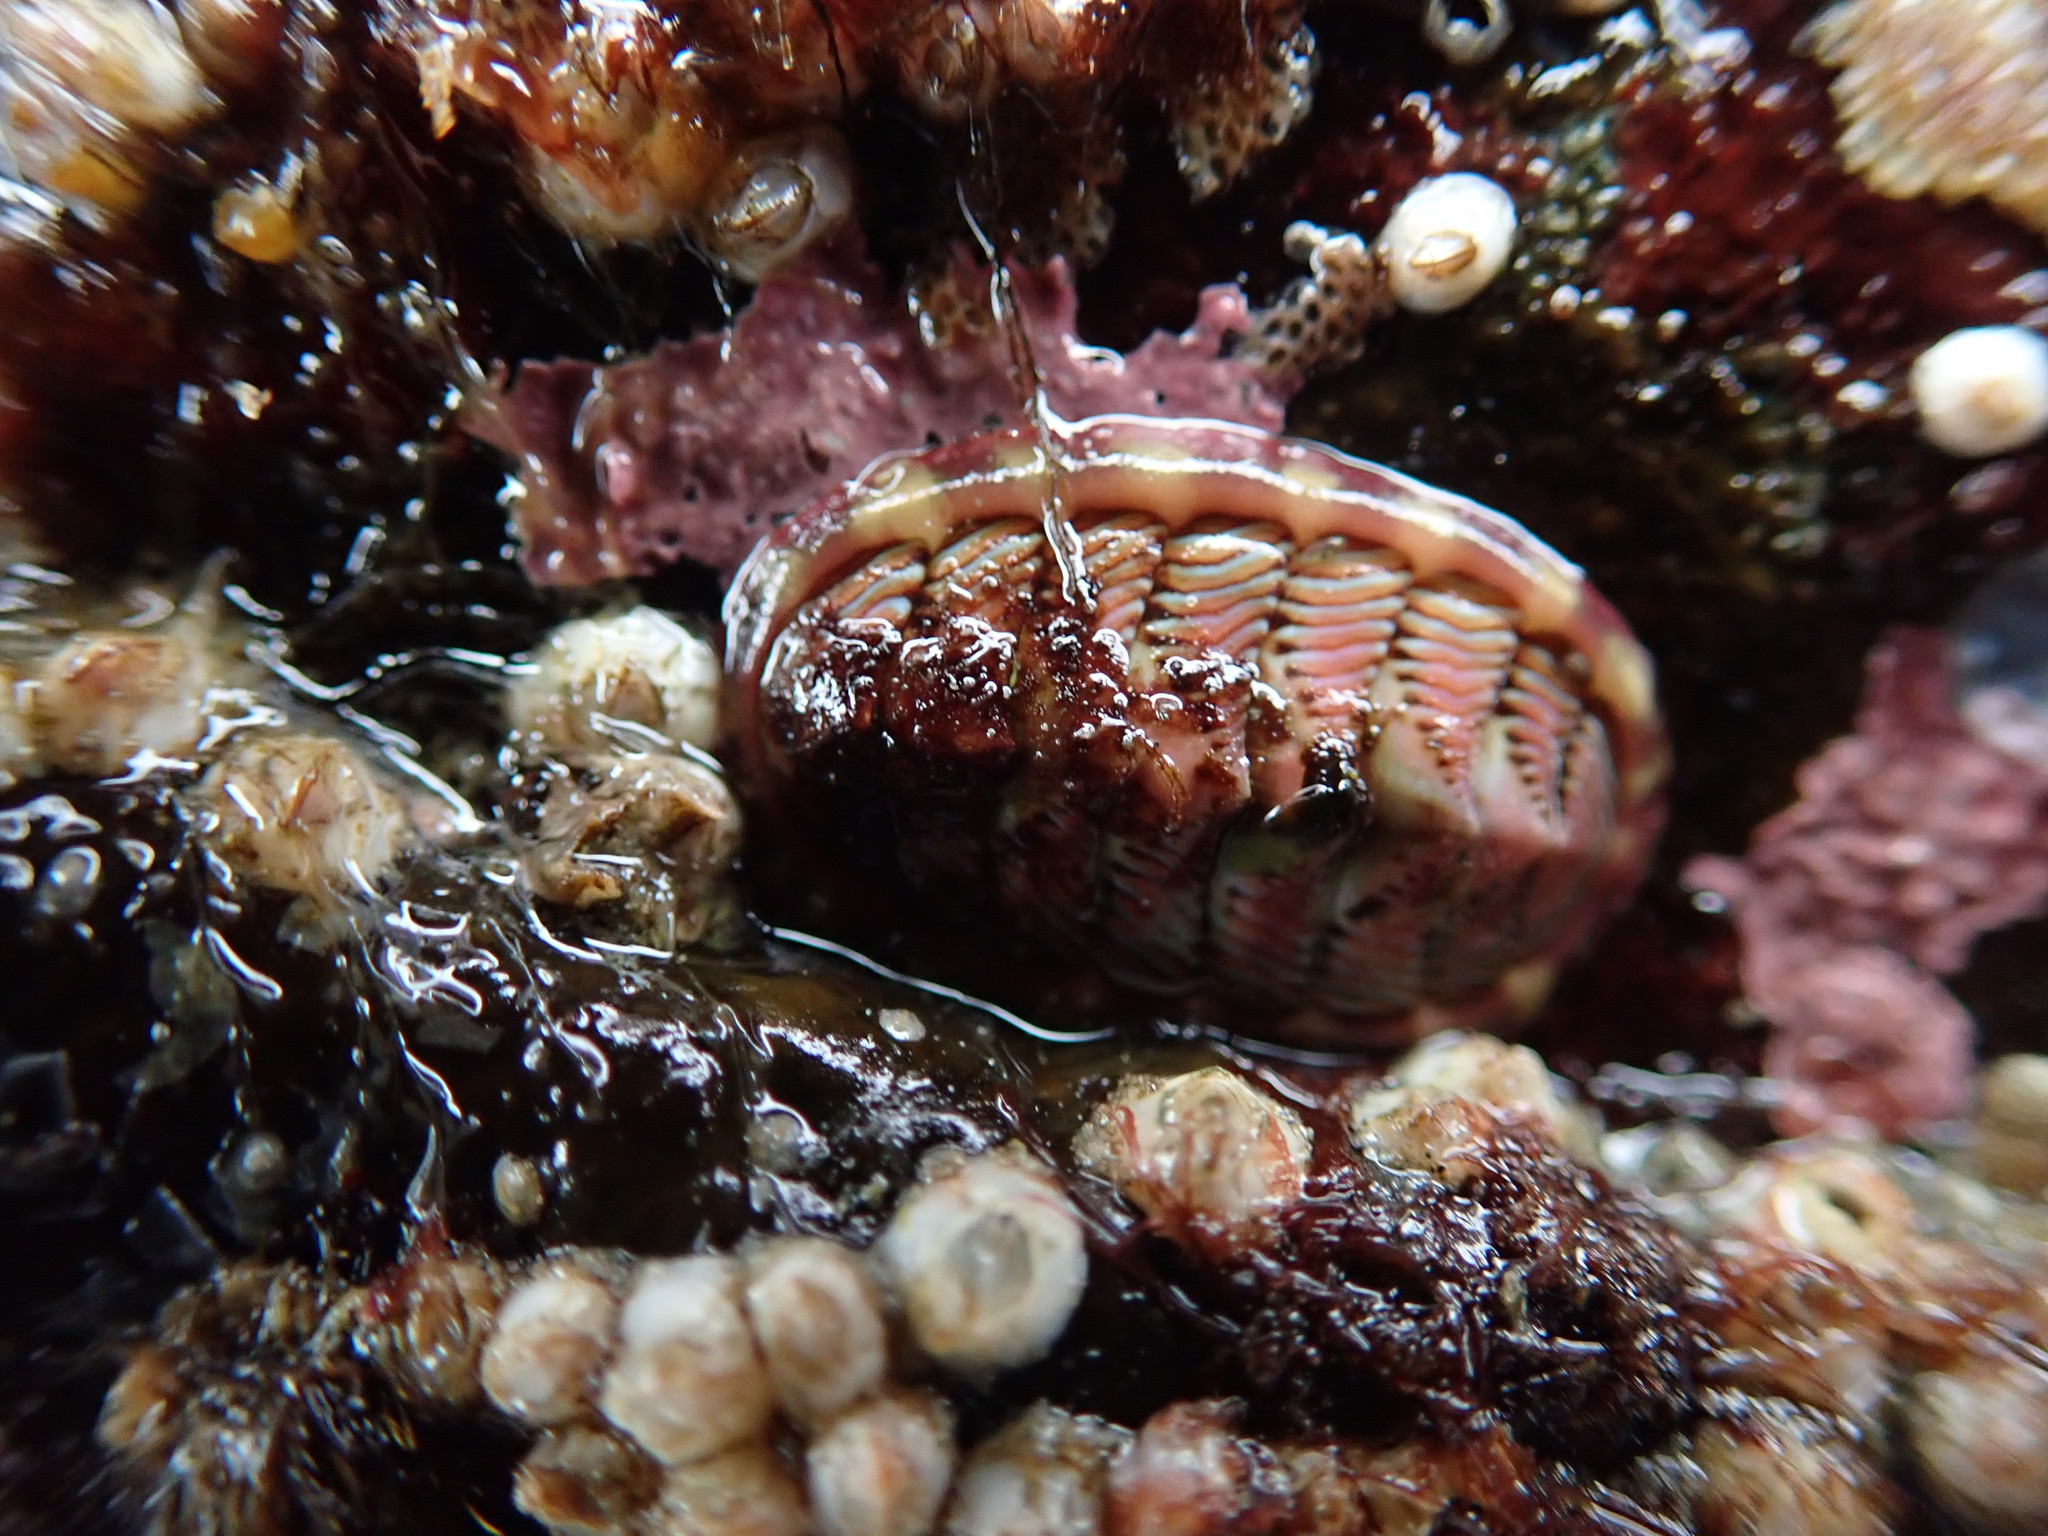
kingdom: Animalia
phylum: Mollusca
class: Polyplacophora
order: Chitonida
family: Tonicellidae
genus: Tonicella
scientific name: Tonicella lineata
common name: Lined chiton
